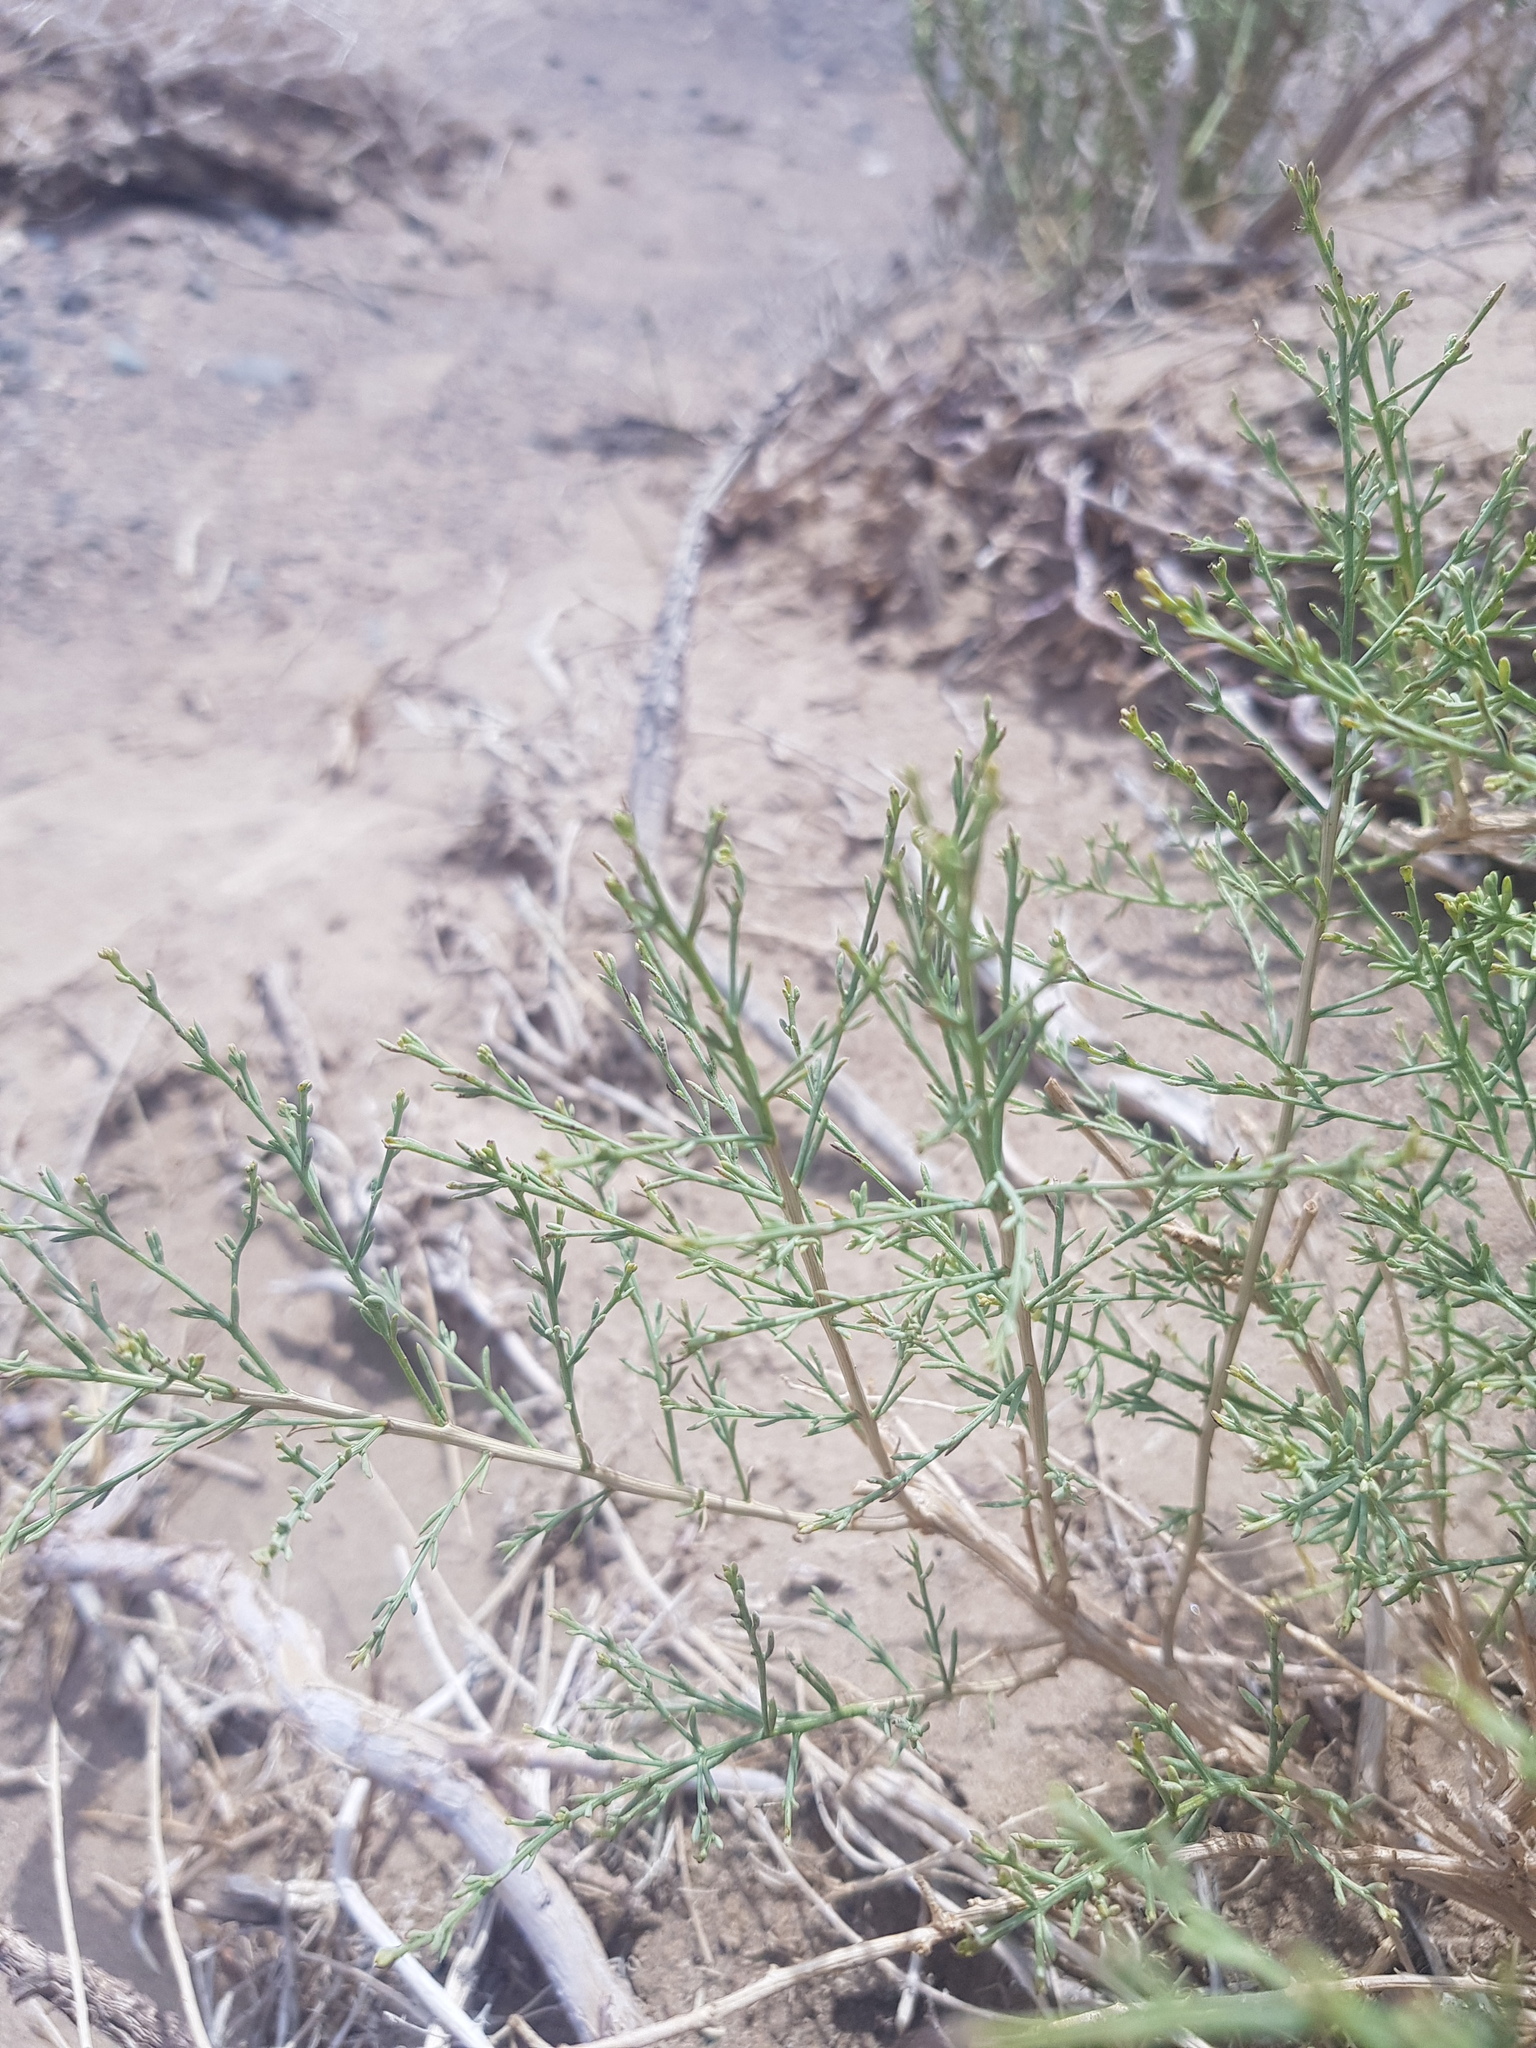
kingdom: Plantae
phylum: Tracheophyta
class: Magnoliopsida
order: Caryophyllales
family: Amaranthaceae
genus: Sympegma
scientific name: Sympegma regelii
